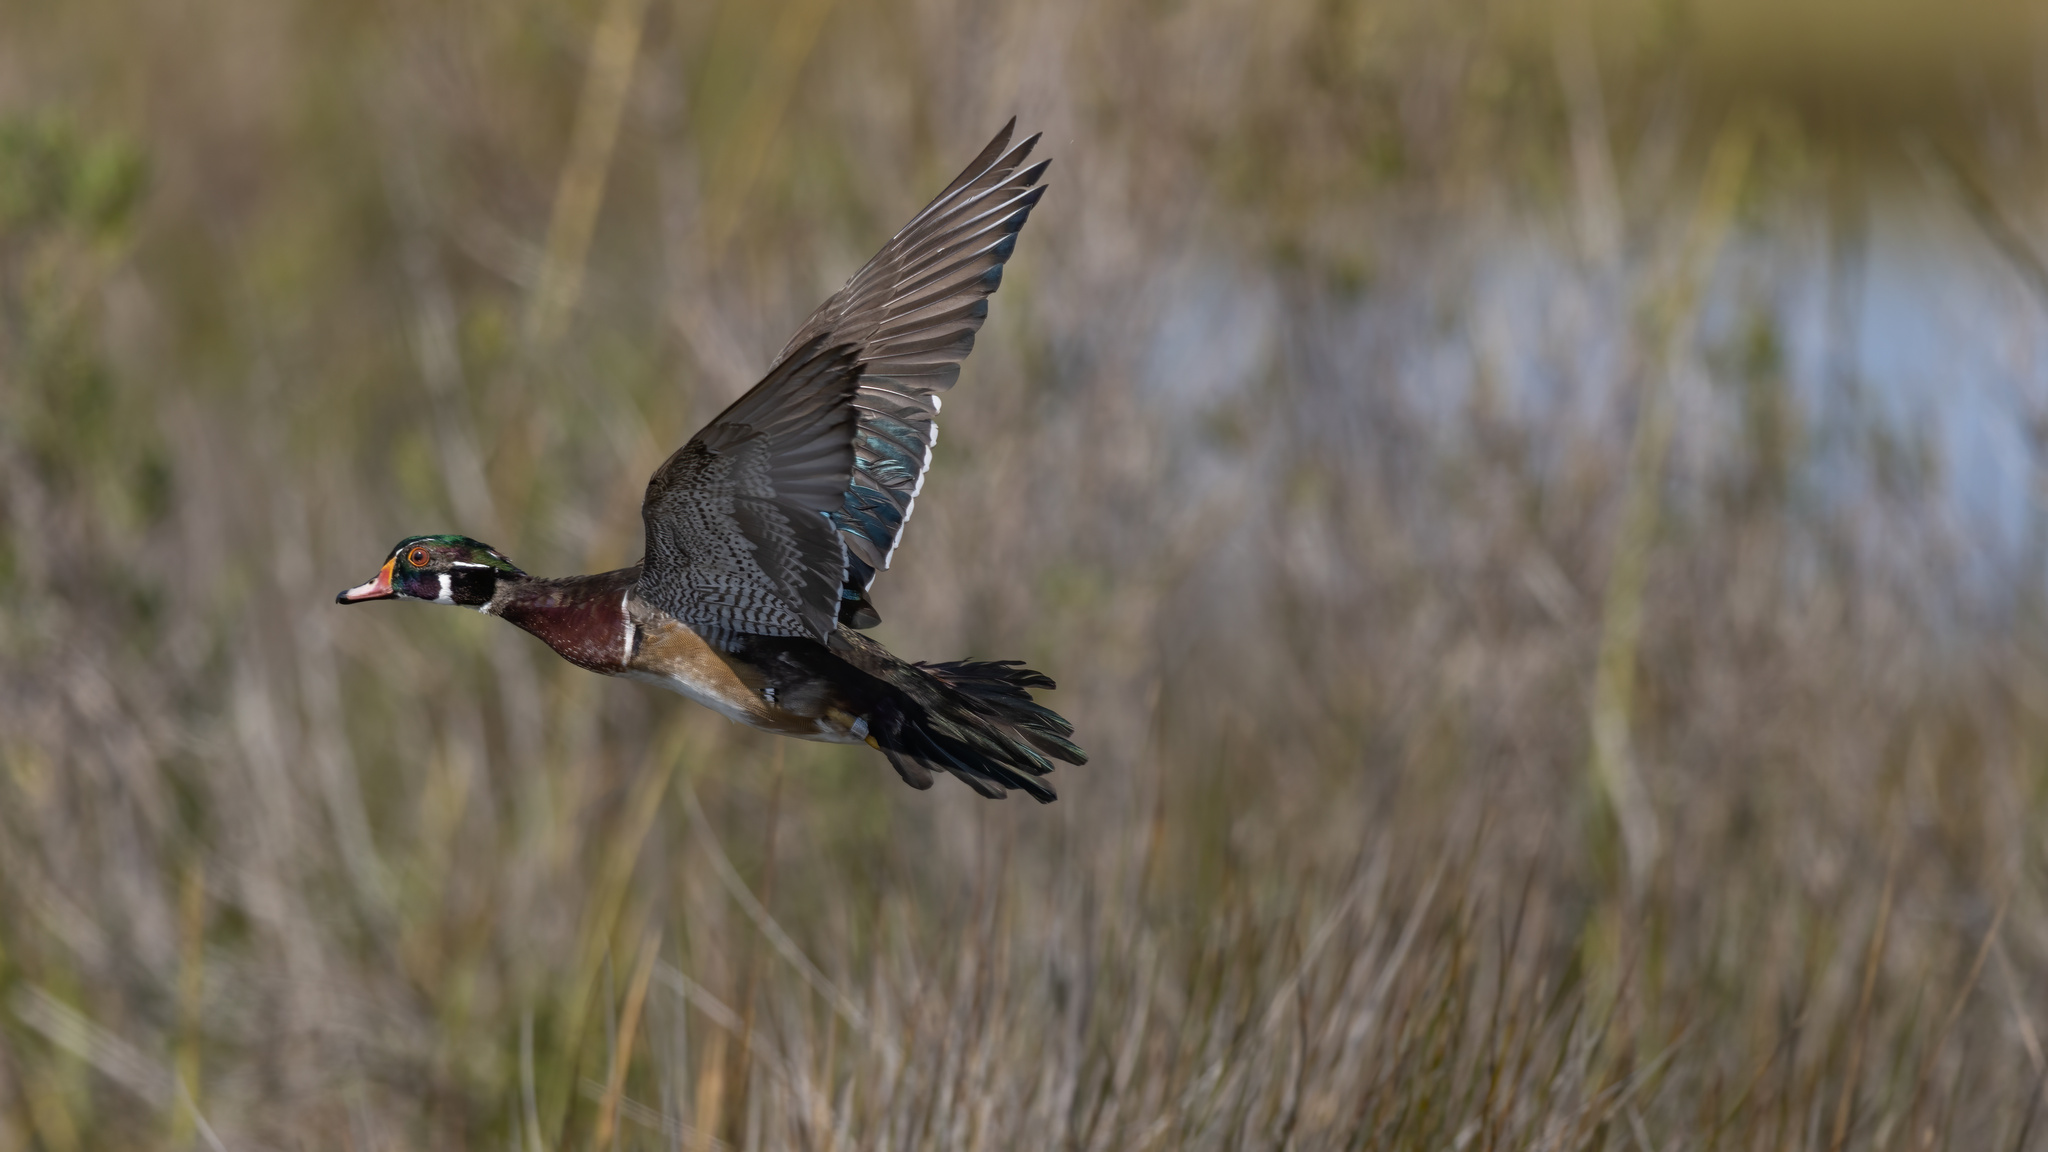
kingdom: Animalia
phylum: Chordata
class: Aves
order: Anseriformes
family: Anatidae
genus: Aix
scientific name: Aix sponsa
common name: Wood duck
